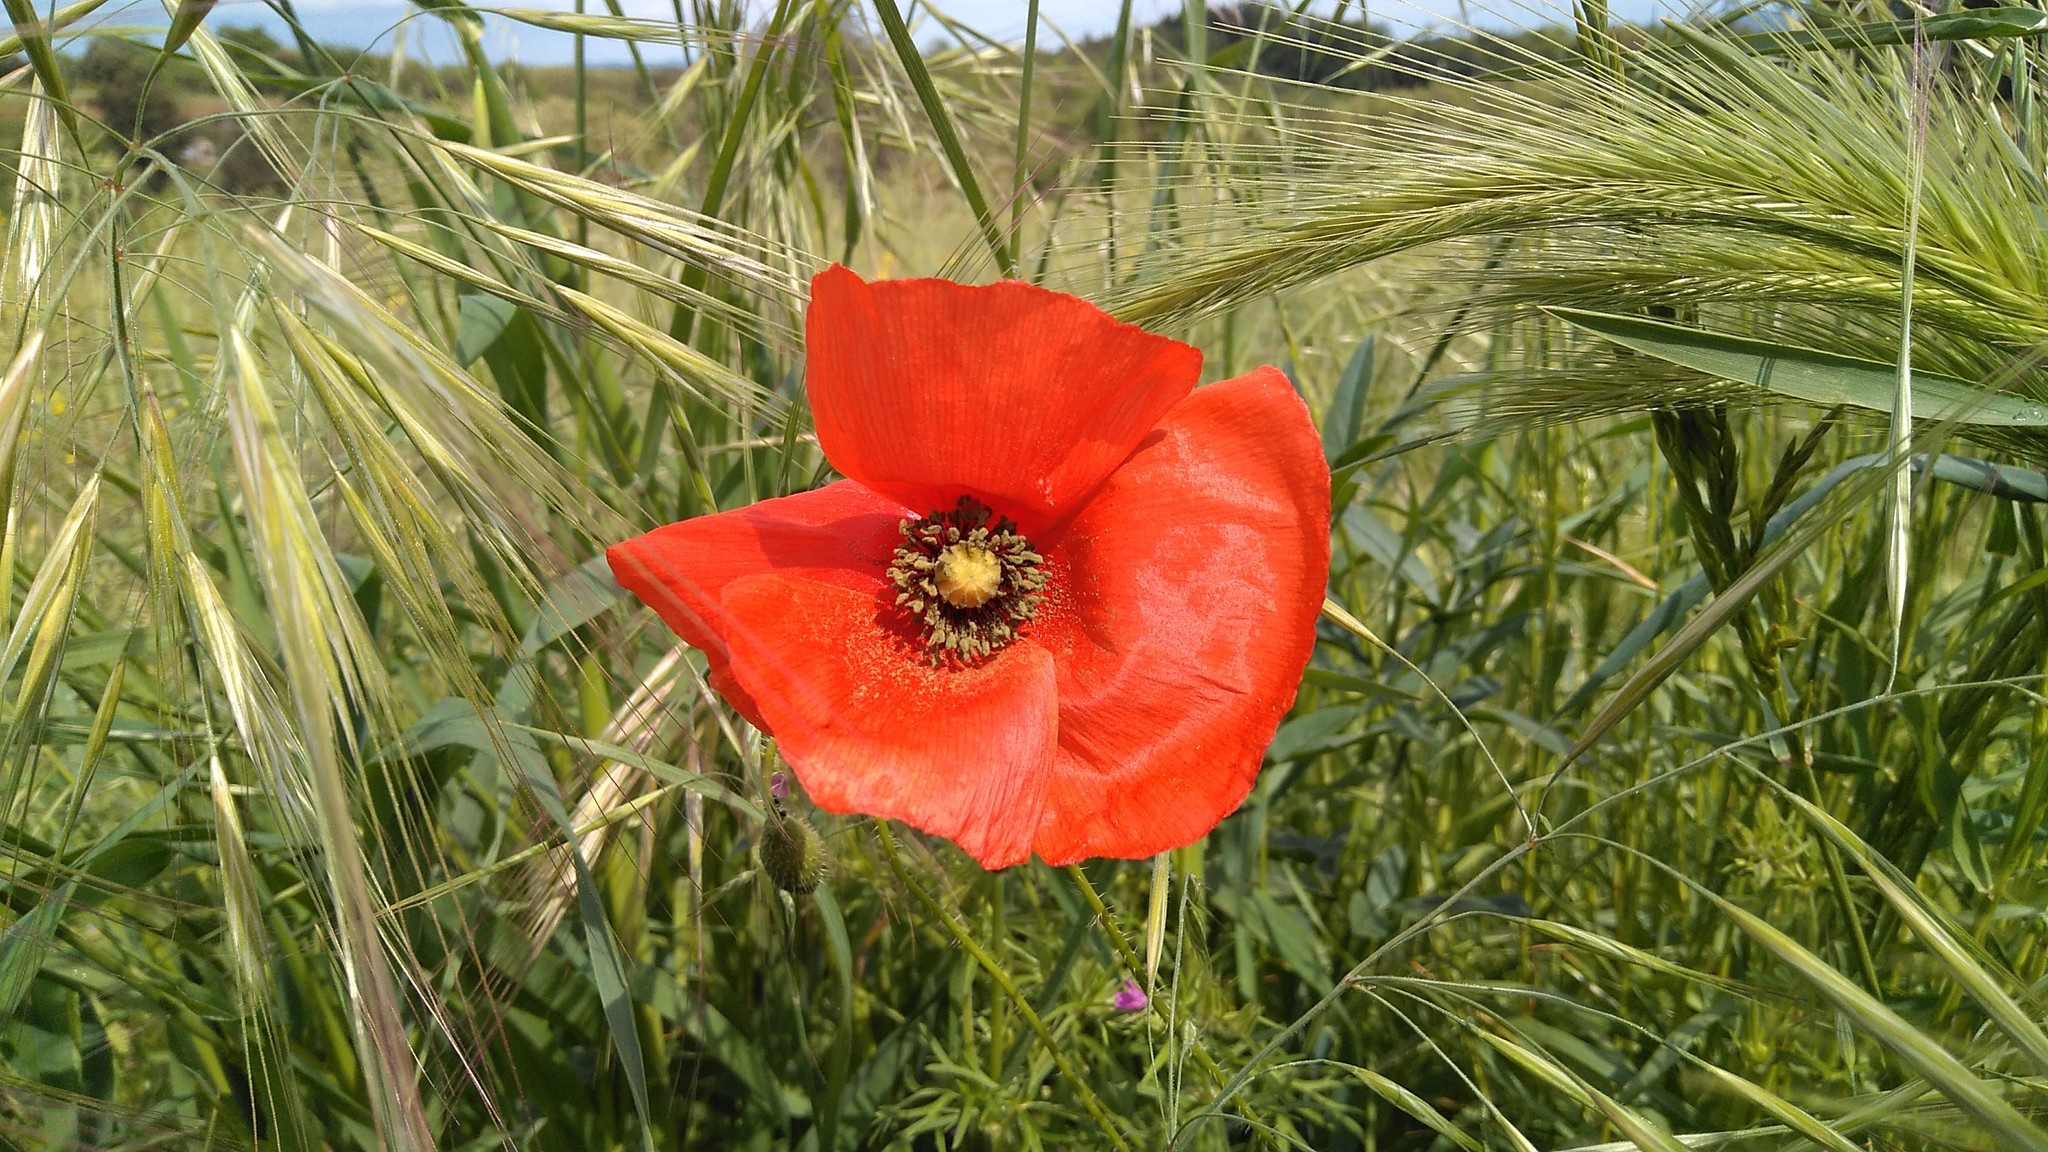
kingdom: Plantae
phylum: Tracheophyta
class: Magnoliopsida
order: Ranunculales
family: Papaveraceae
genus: Papaver
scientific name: Papaver rhoeas
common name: Corn poppy
